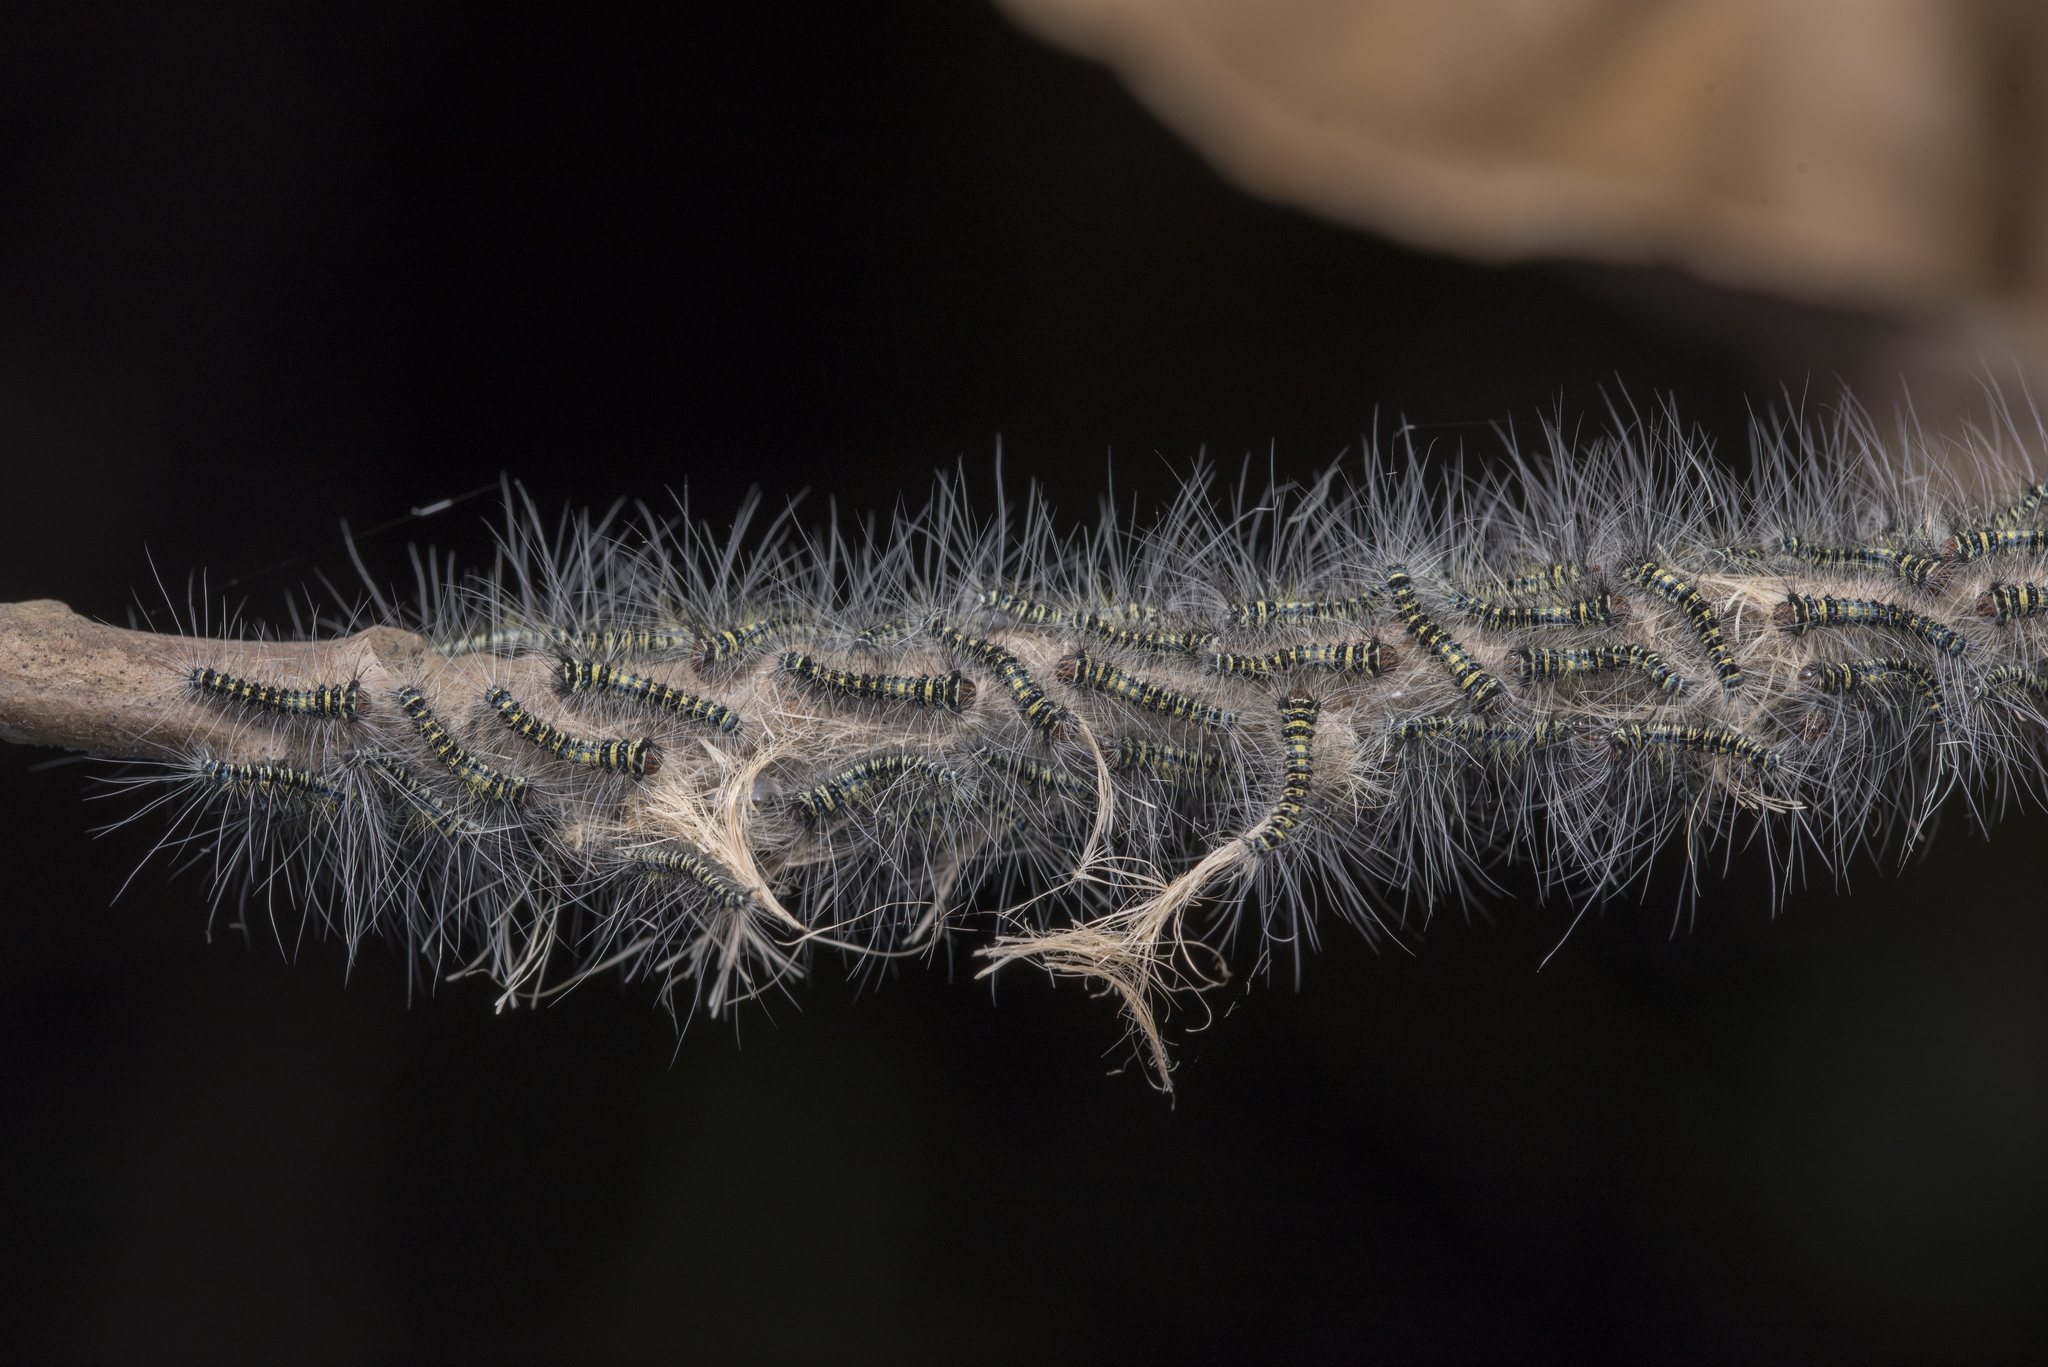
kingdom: Animalia
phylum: Arthropoda
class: Insecta
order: Lepidoptera
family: Lasiocampidae
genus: Trabala
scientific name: Trabala vishnou
